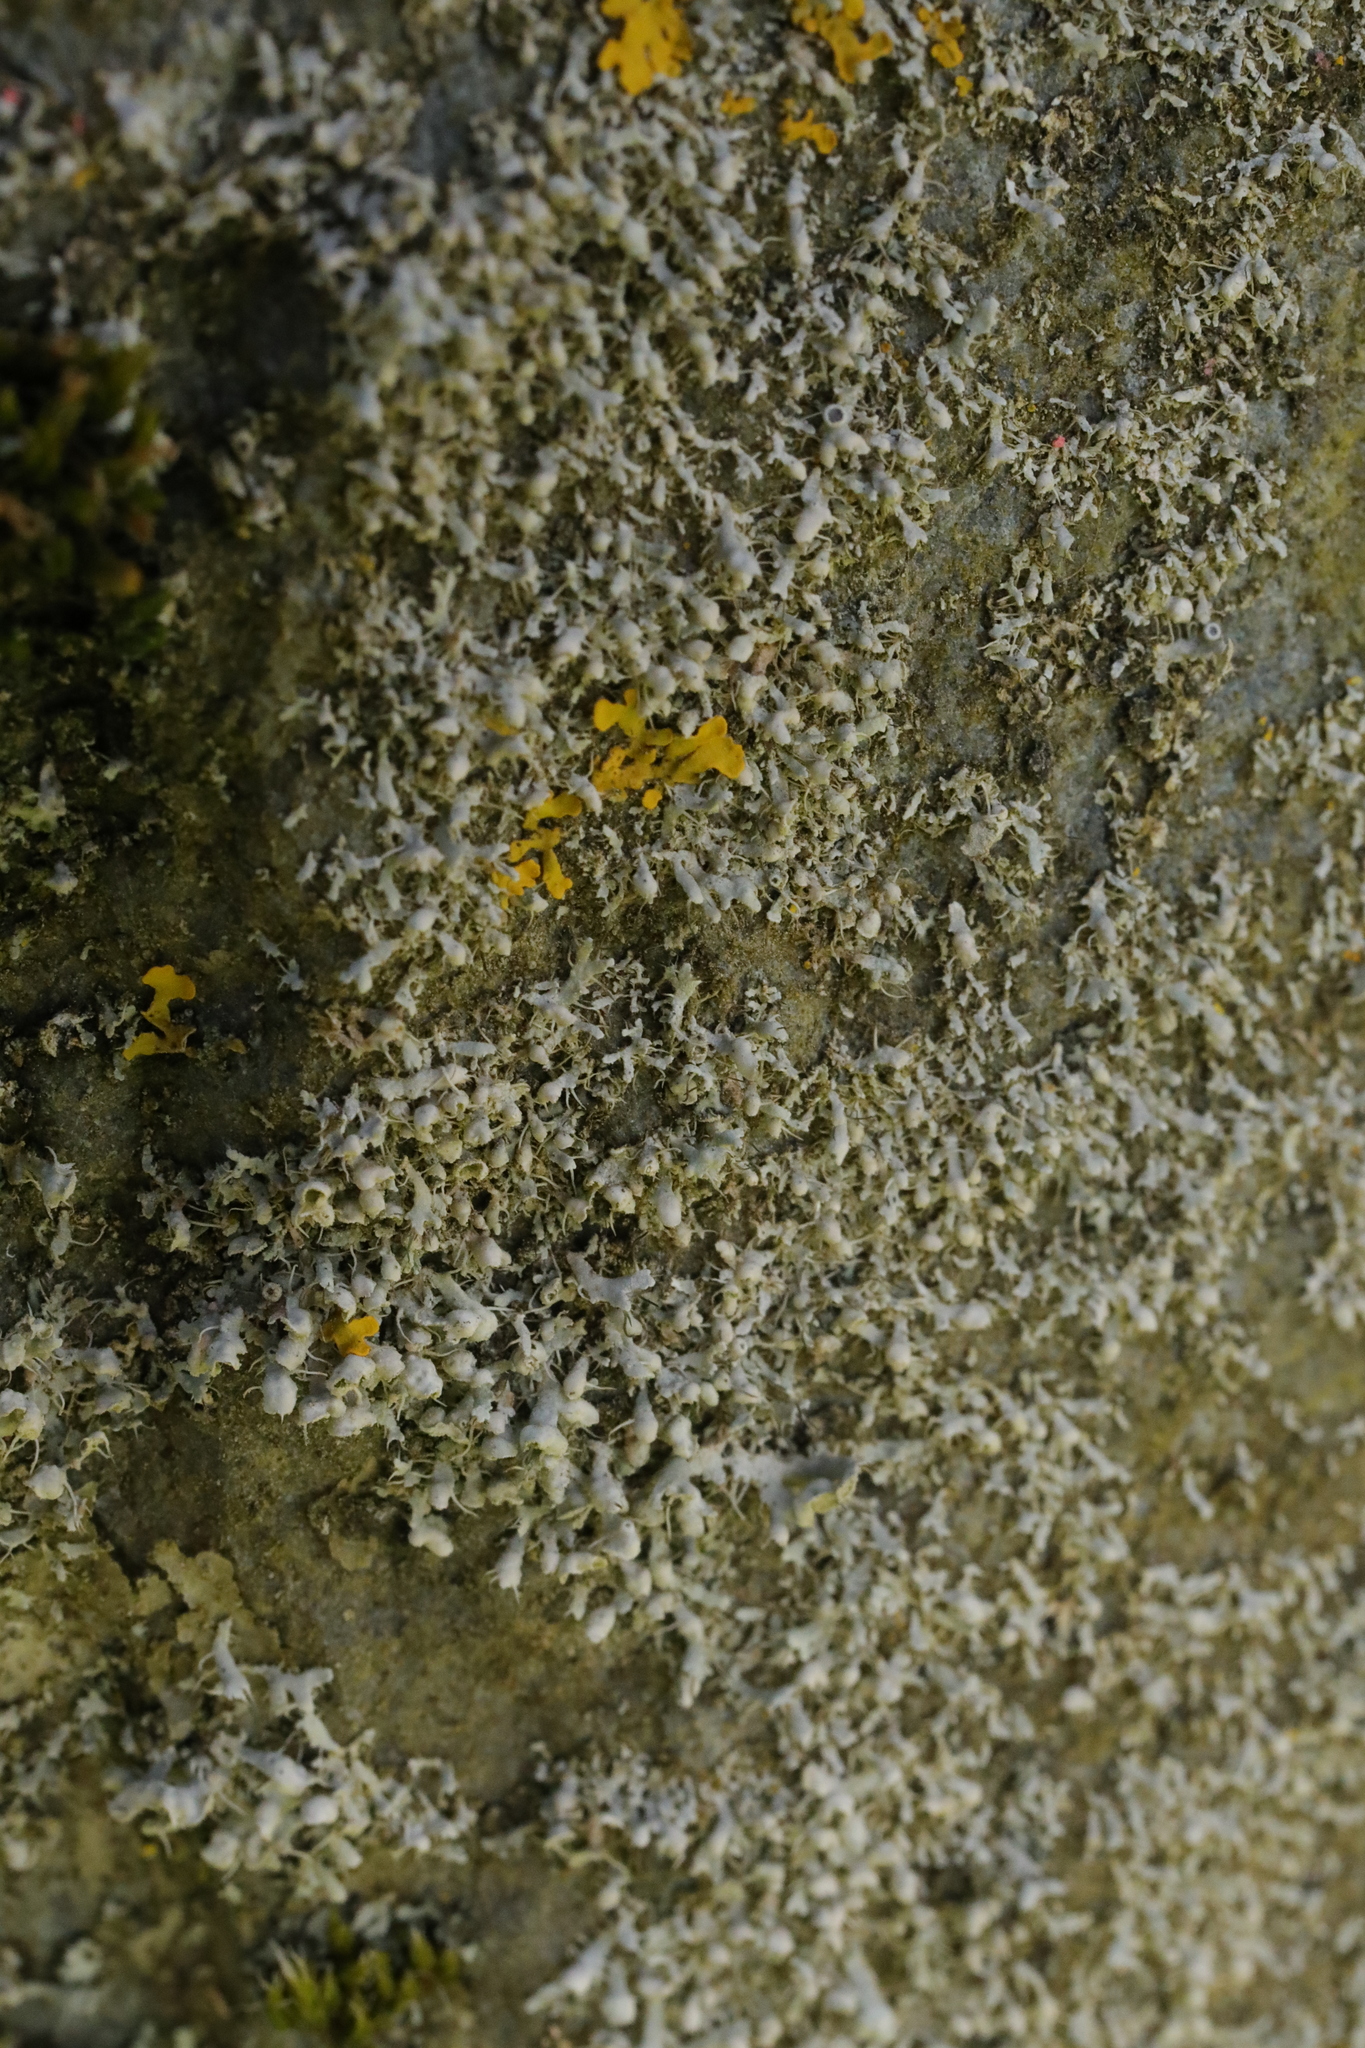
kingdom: Fungi
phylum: Ascomycota
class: Lecanoromycetes
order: Caliciales
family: Physciaceae
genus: Physcia
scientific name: Physcia adscendens
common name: Hooded rosette lichen
